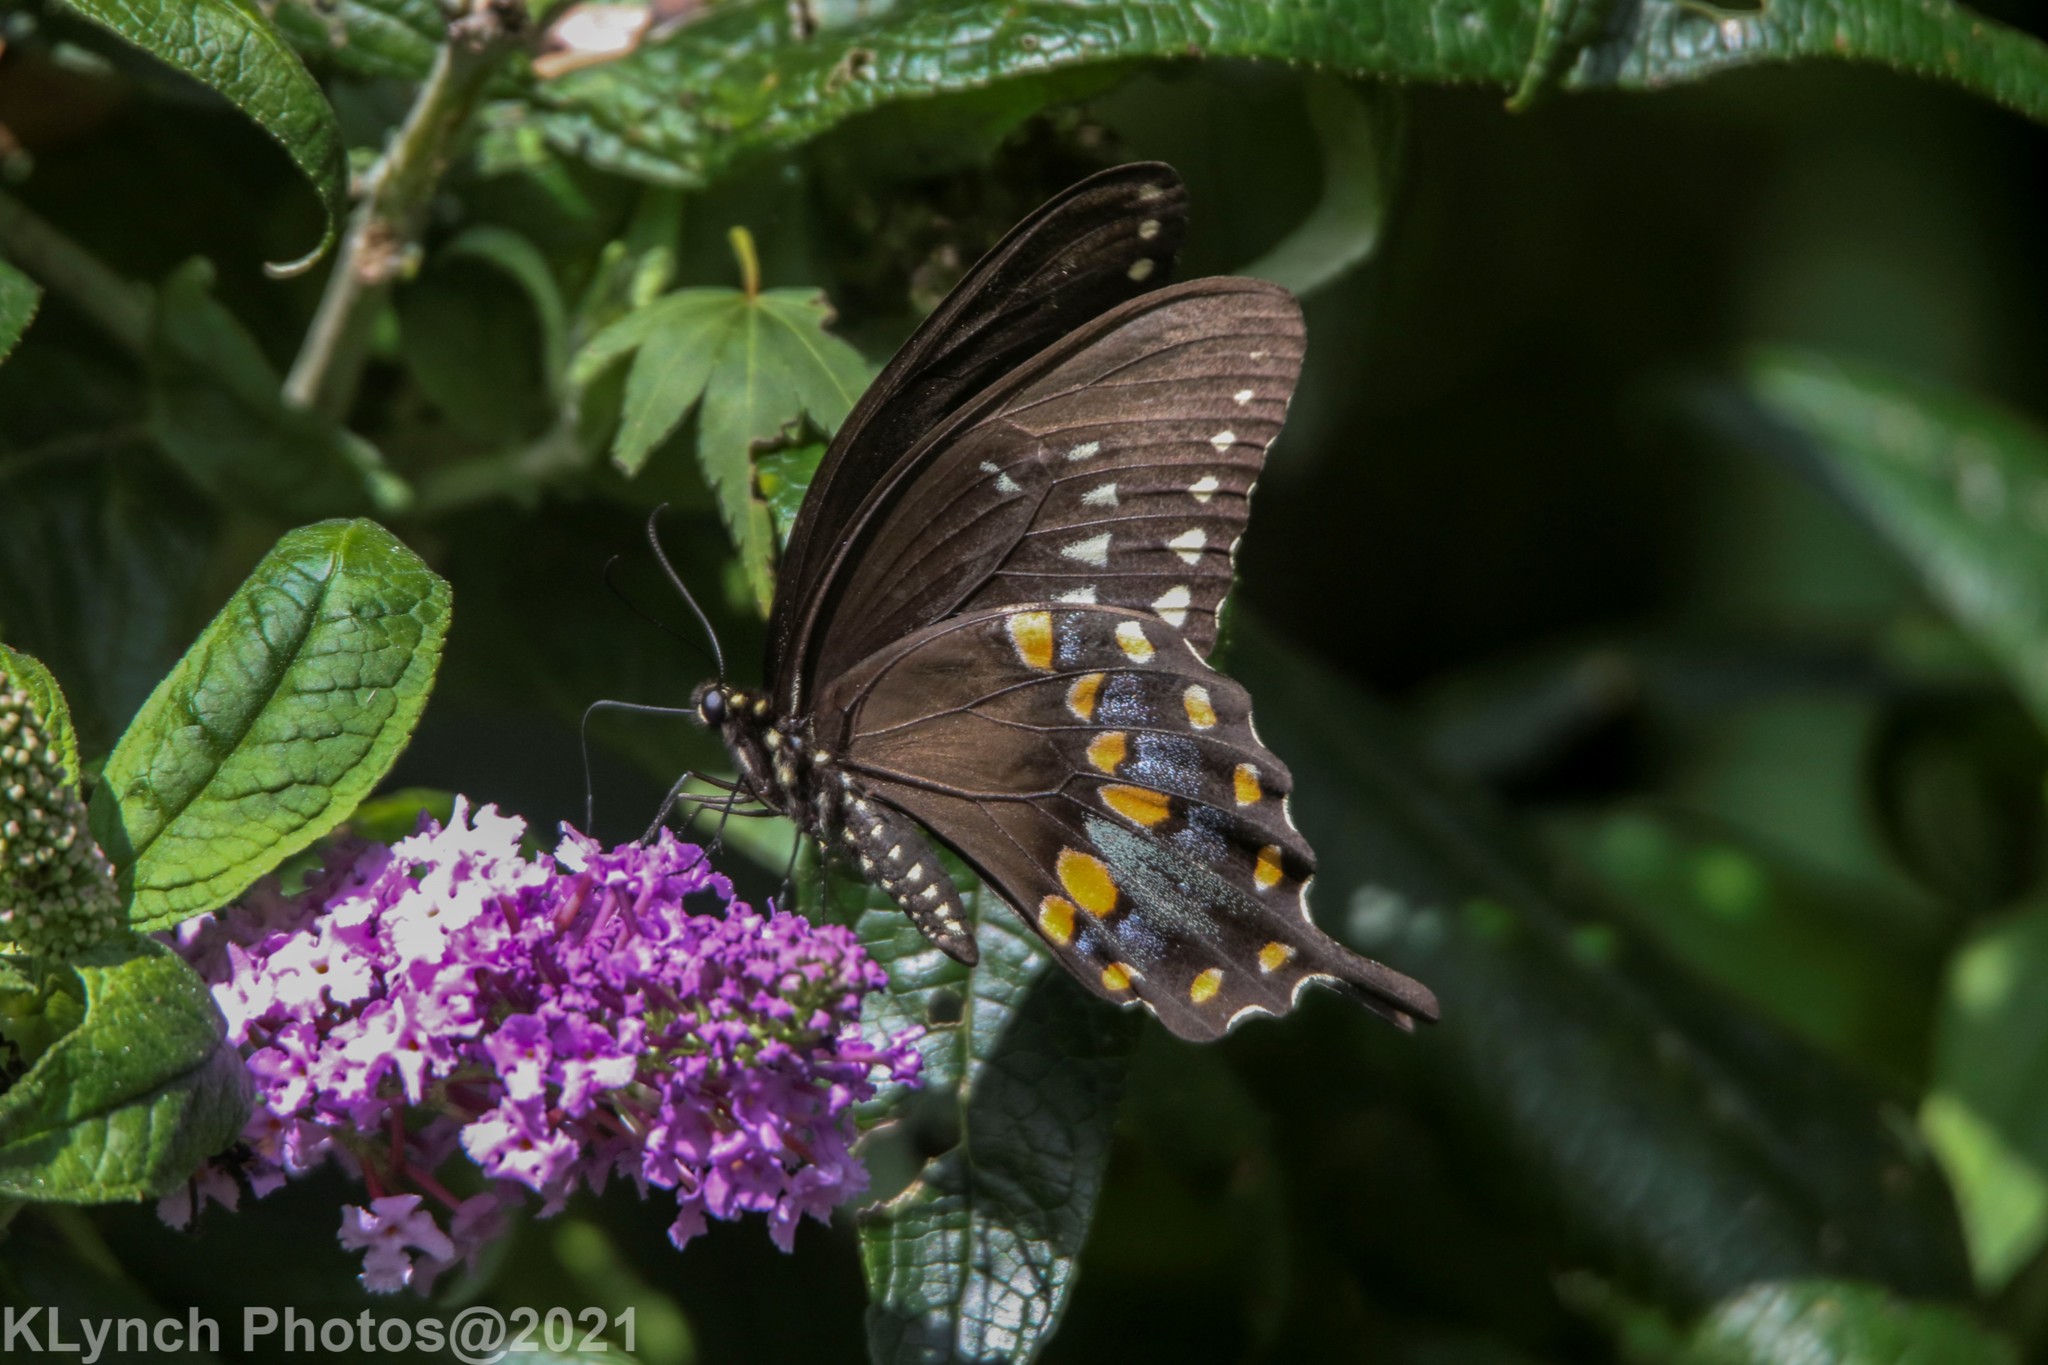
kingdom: Animalia
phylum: Arthropoda
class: Insecta
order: Lepidoptera
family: Papilionidae
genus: Papilio
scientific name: Papilio troilus
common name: Spicebush swallowtail
